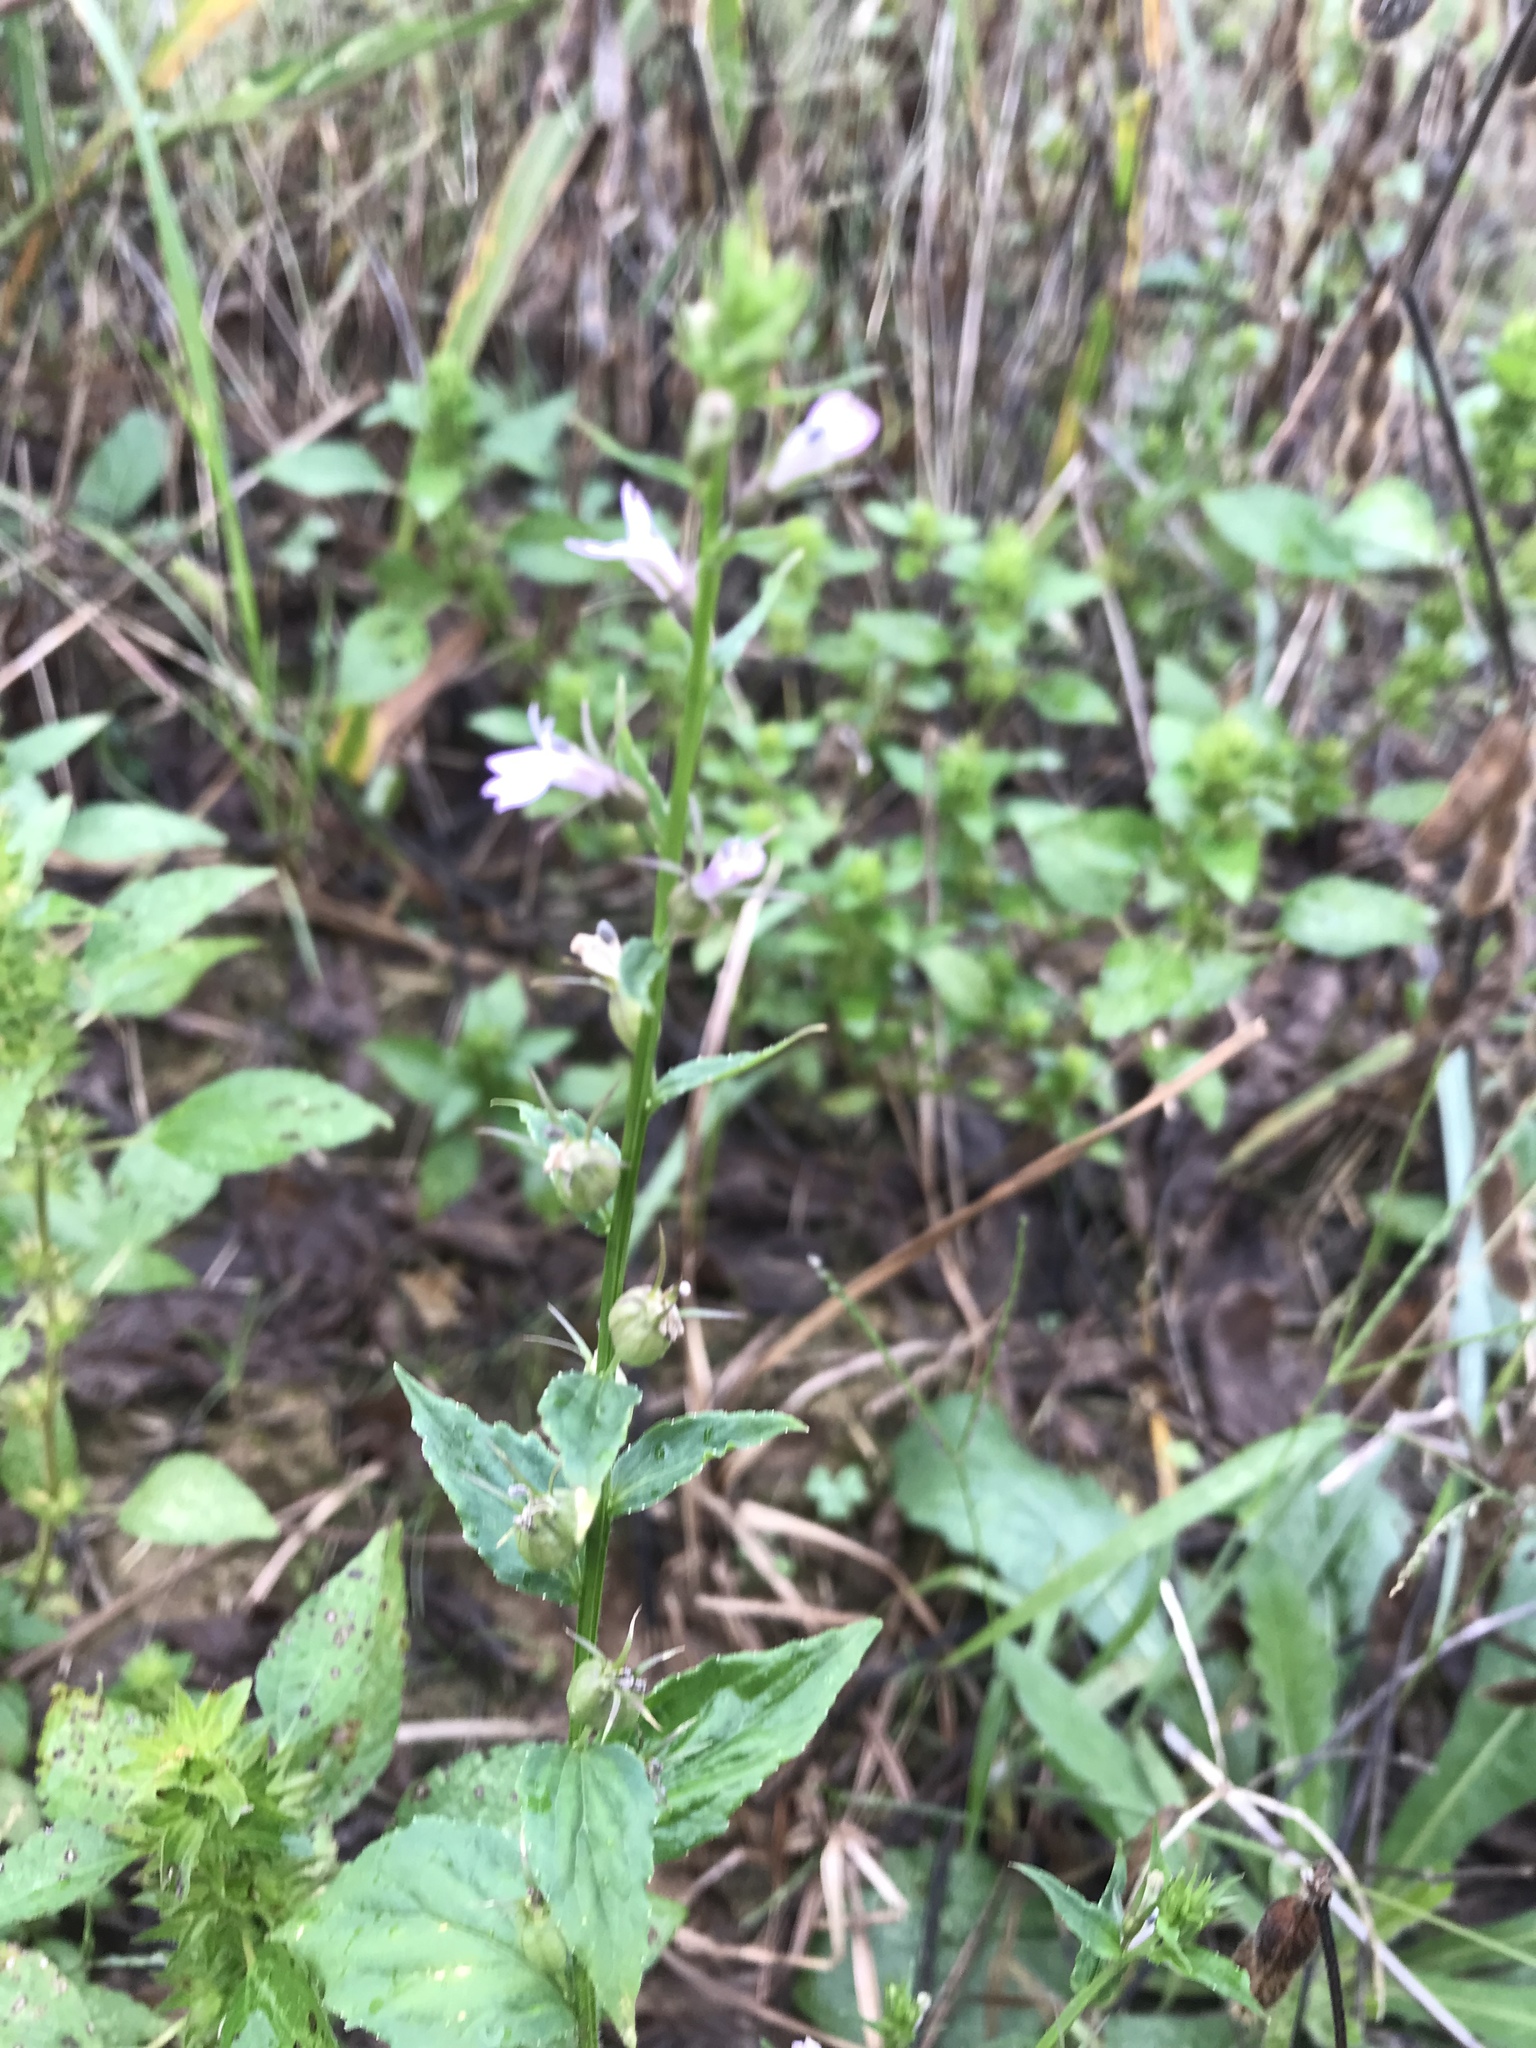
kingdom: Plantae
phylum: Tracheophyta
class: Magnoliopsida
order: Asterales
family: Campanulaceae
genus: Lobelia
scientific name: Lobelia inflata
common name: Indian tobacco
